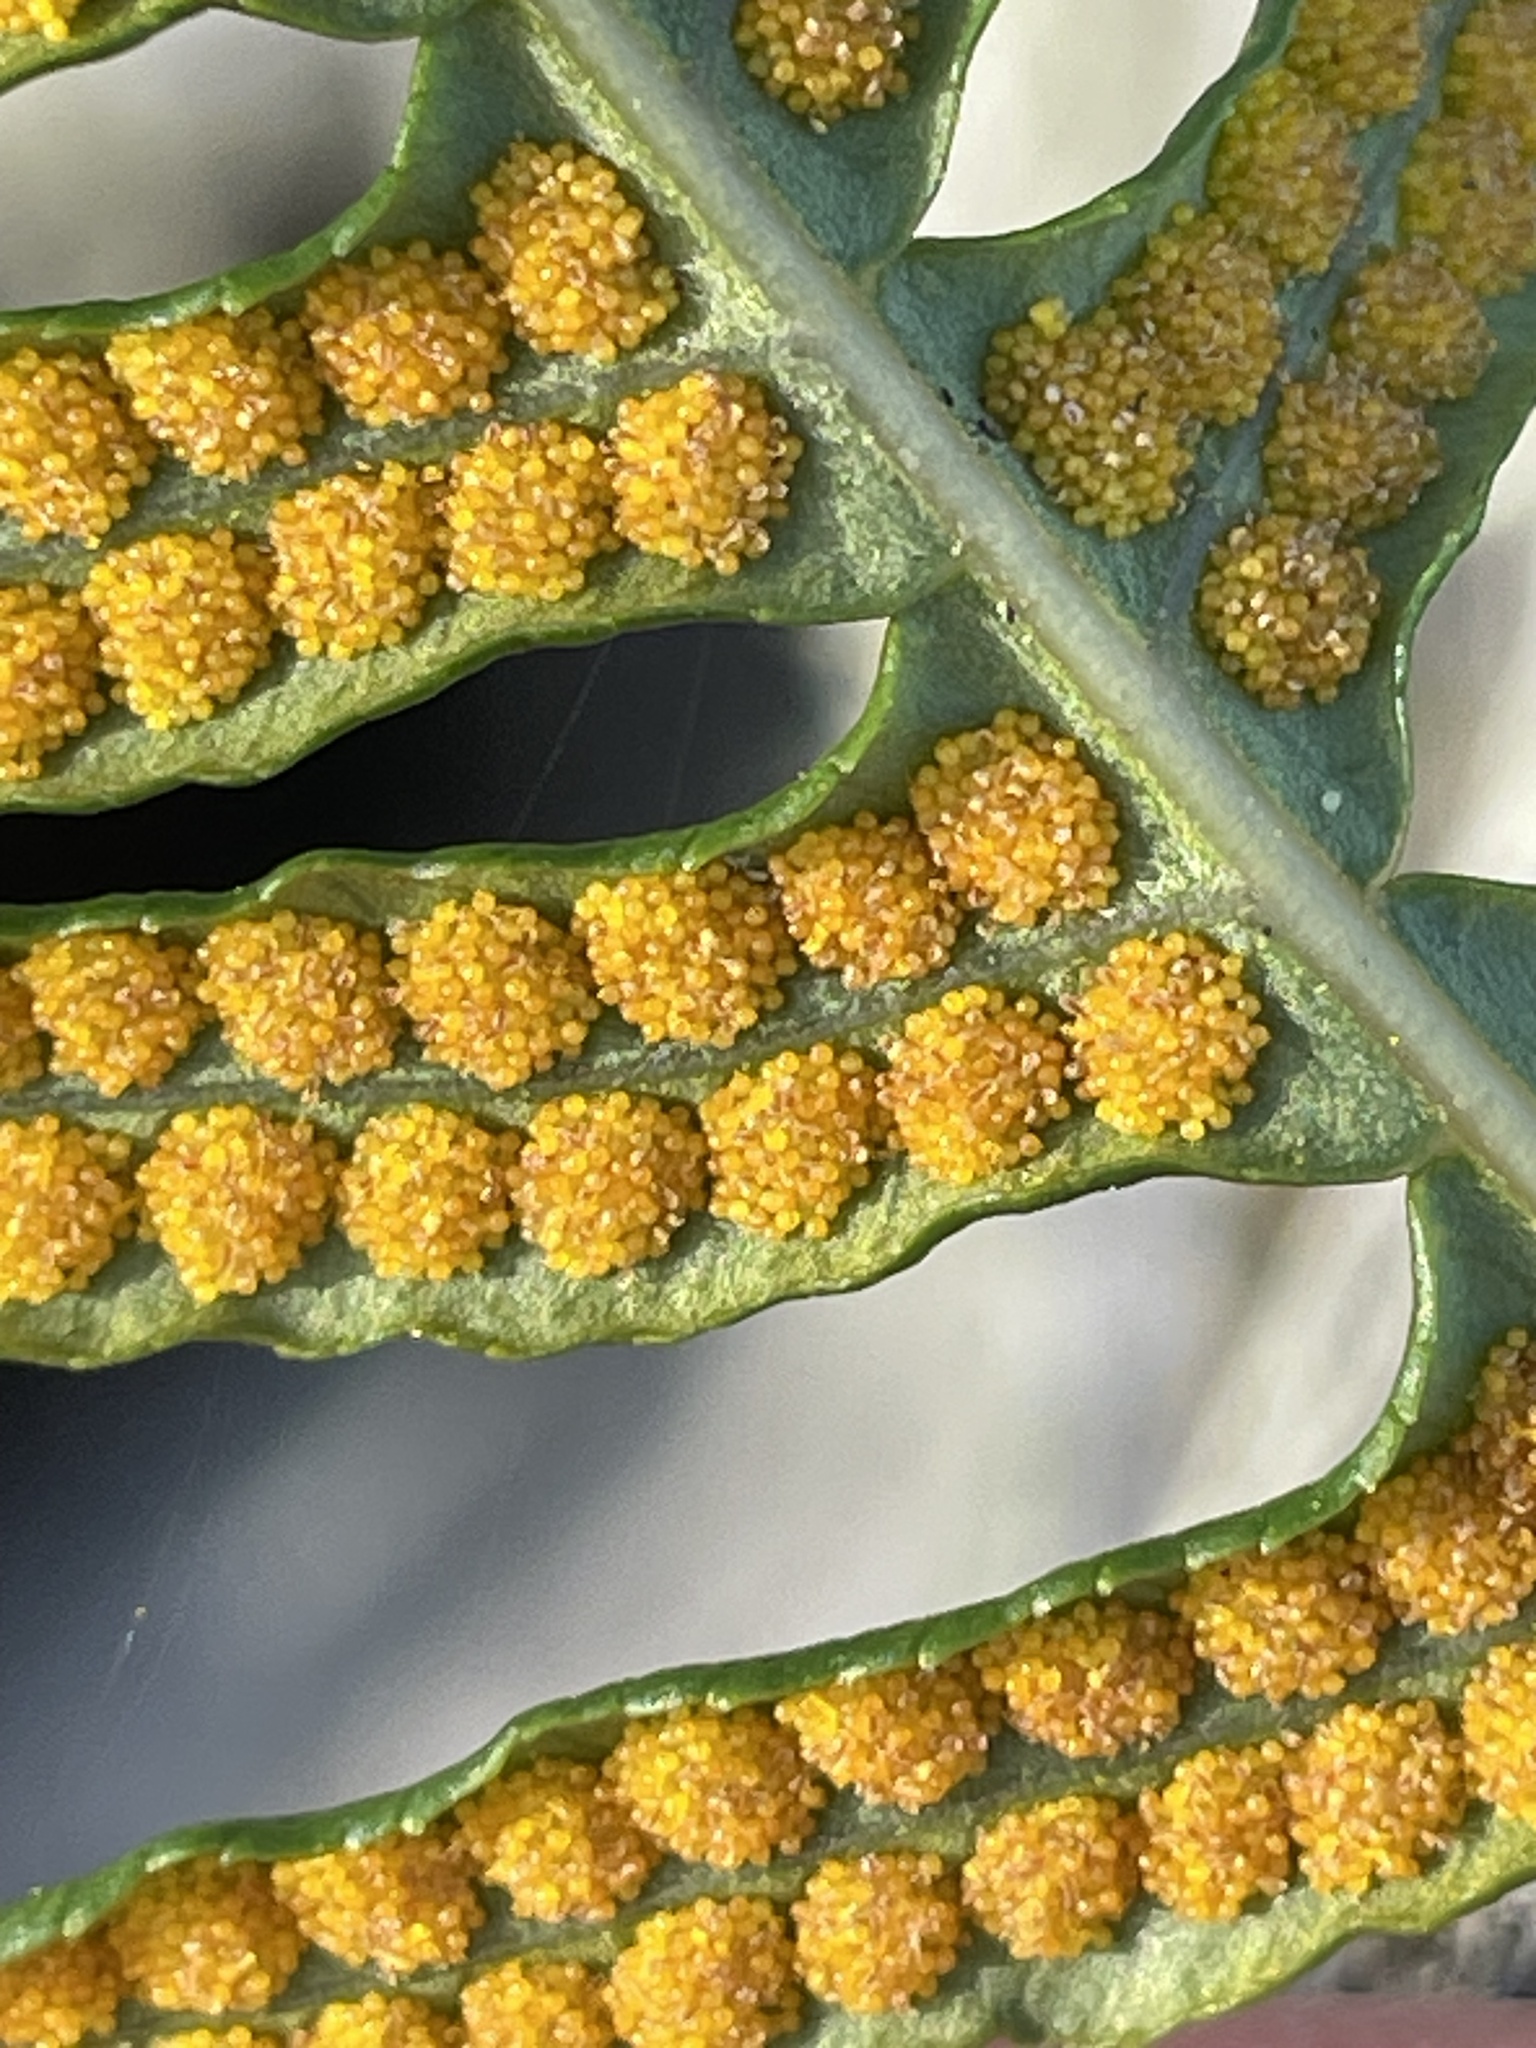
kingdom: Plantae
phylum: Tracheophyta
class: Polypodiopsida
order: Polypodiales
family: Polypodiaceae
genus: Polypodium
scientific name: Polypodium glycyrrhiza
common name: Licorice fern
